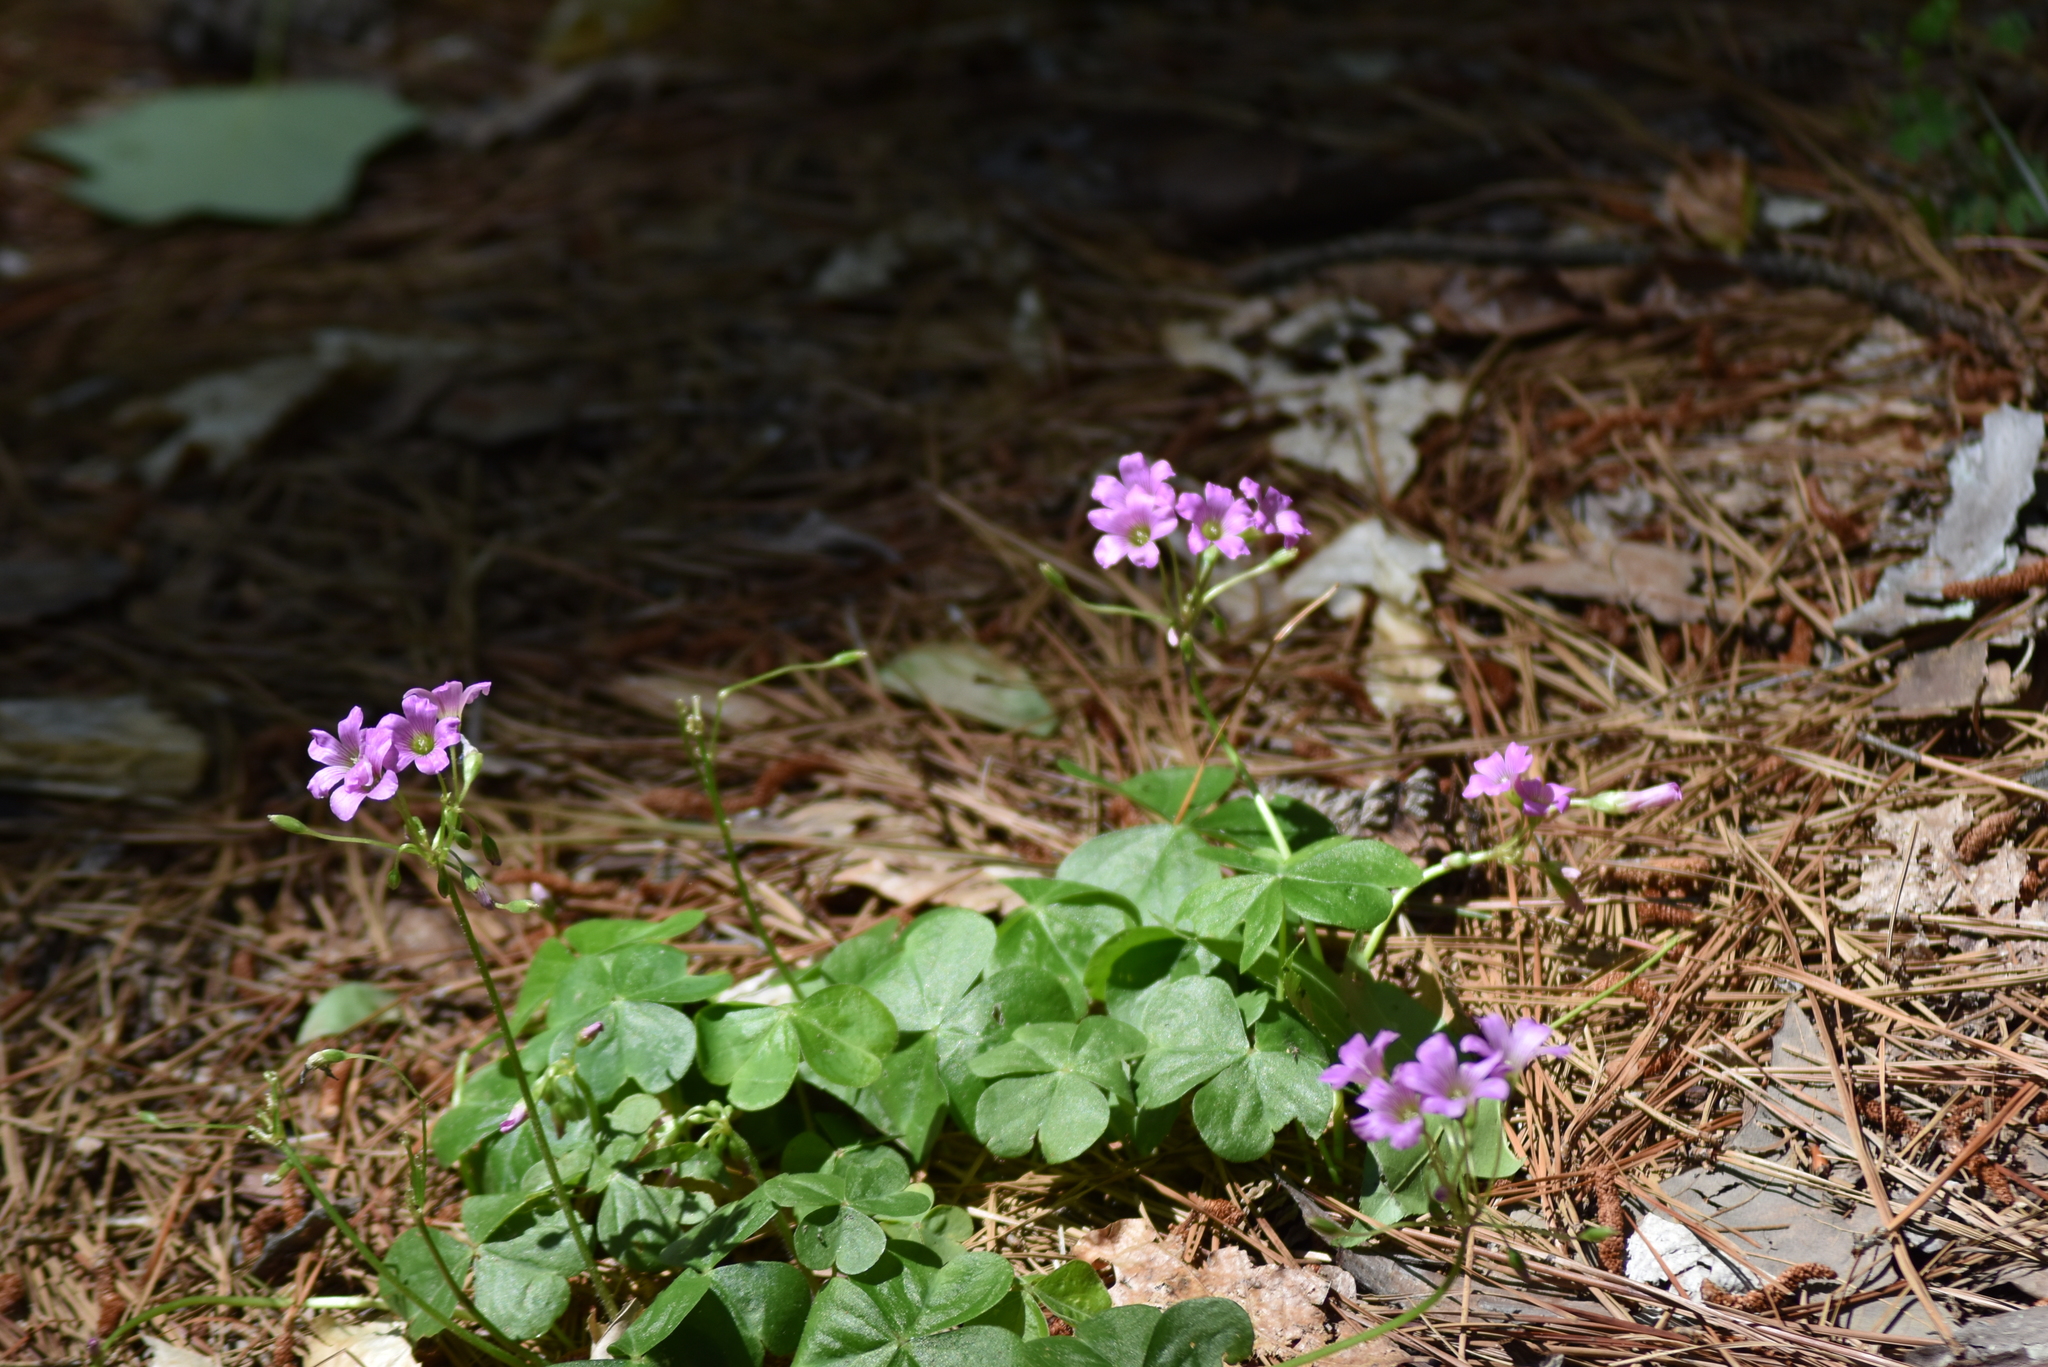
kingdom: Plantae
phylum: Tracheophyta
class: Magnoliopsida
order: Oxalidales
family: Oxalidaceae
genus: Oxalis
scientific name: Oxalis debilis
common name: Large-flowered pink-sorrel
